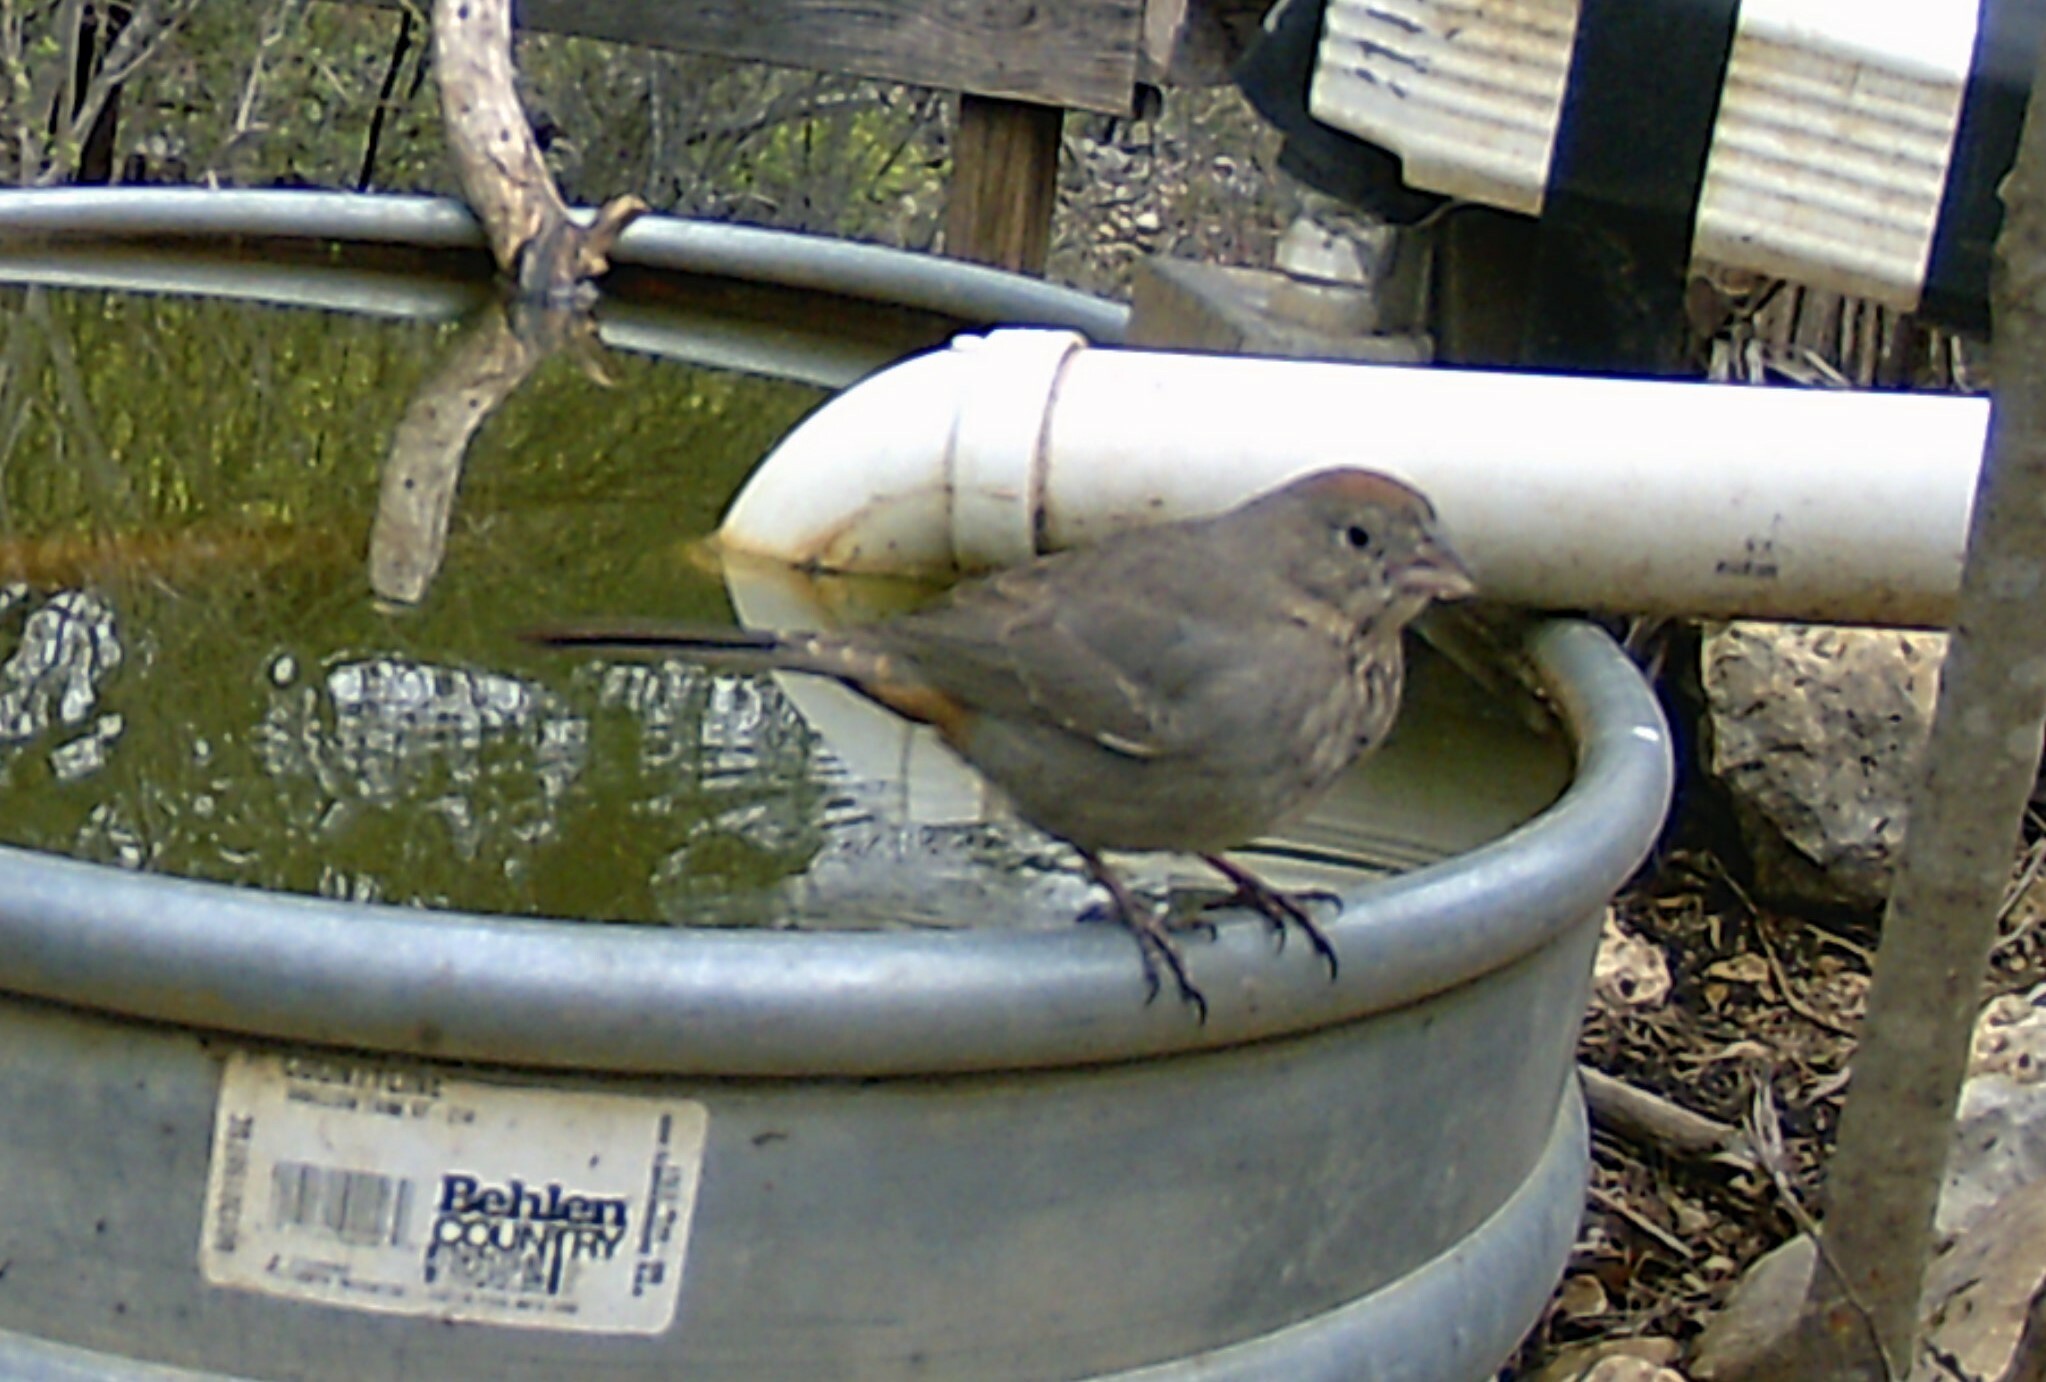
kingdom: Animalia
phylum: Chordata
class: Aves
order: Passeriformes
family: Passerellidae
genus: Melozone
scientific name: Melozone fusca
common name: Canyon towhee
